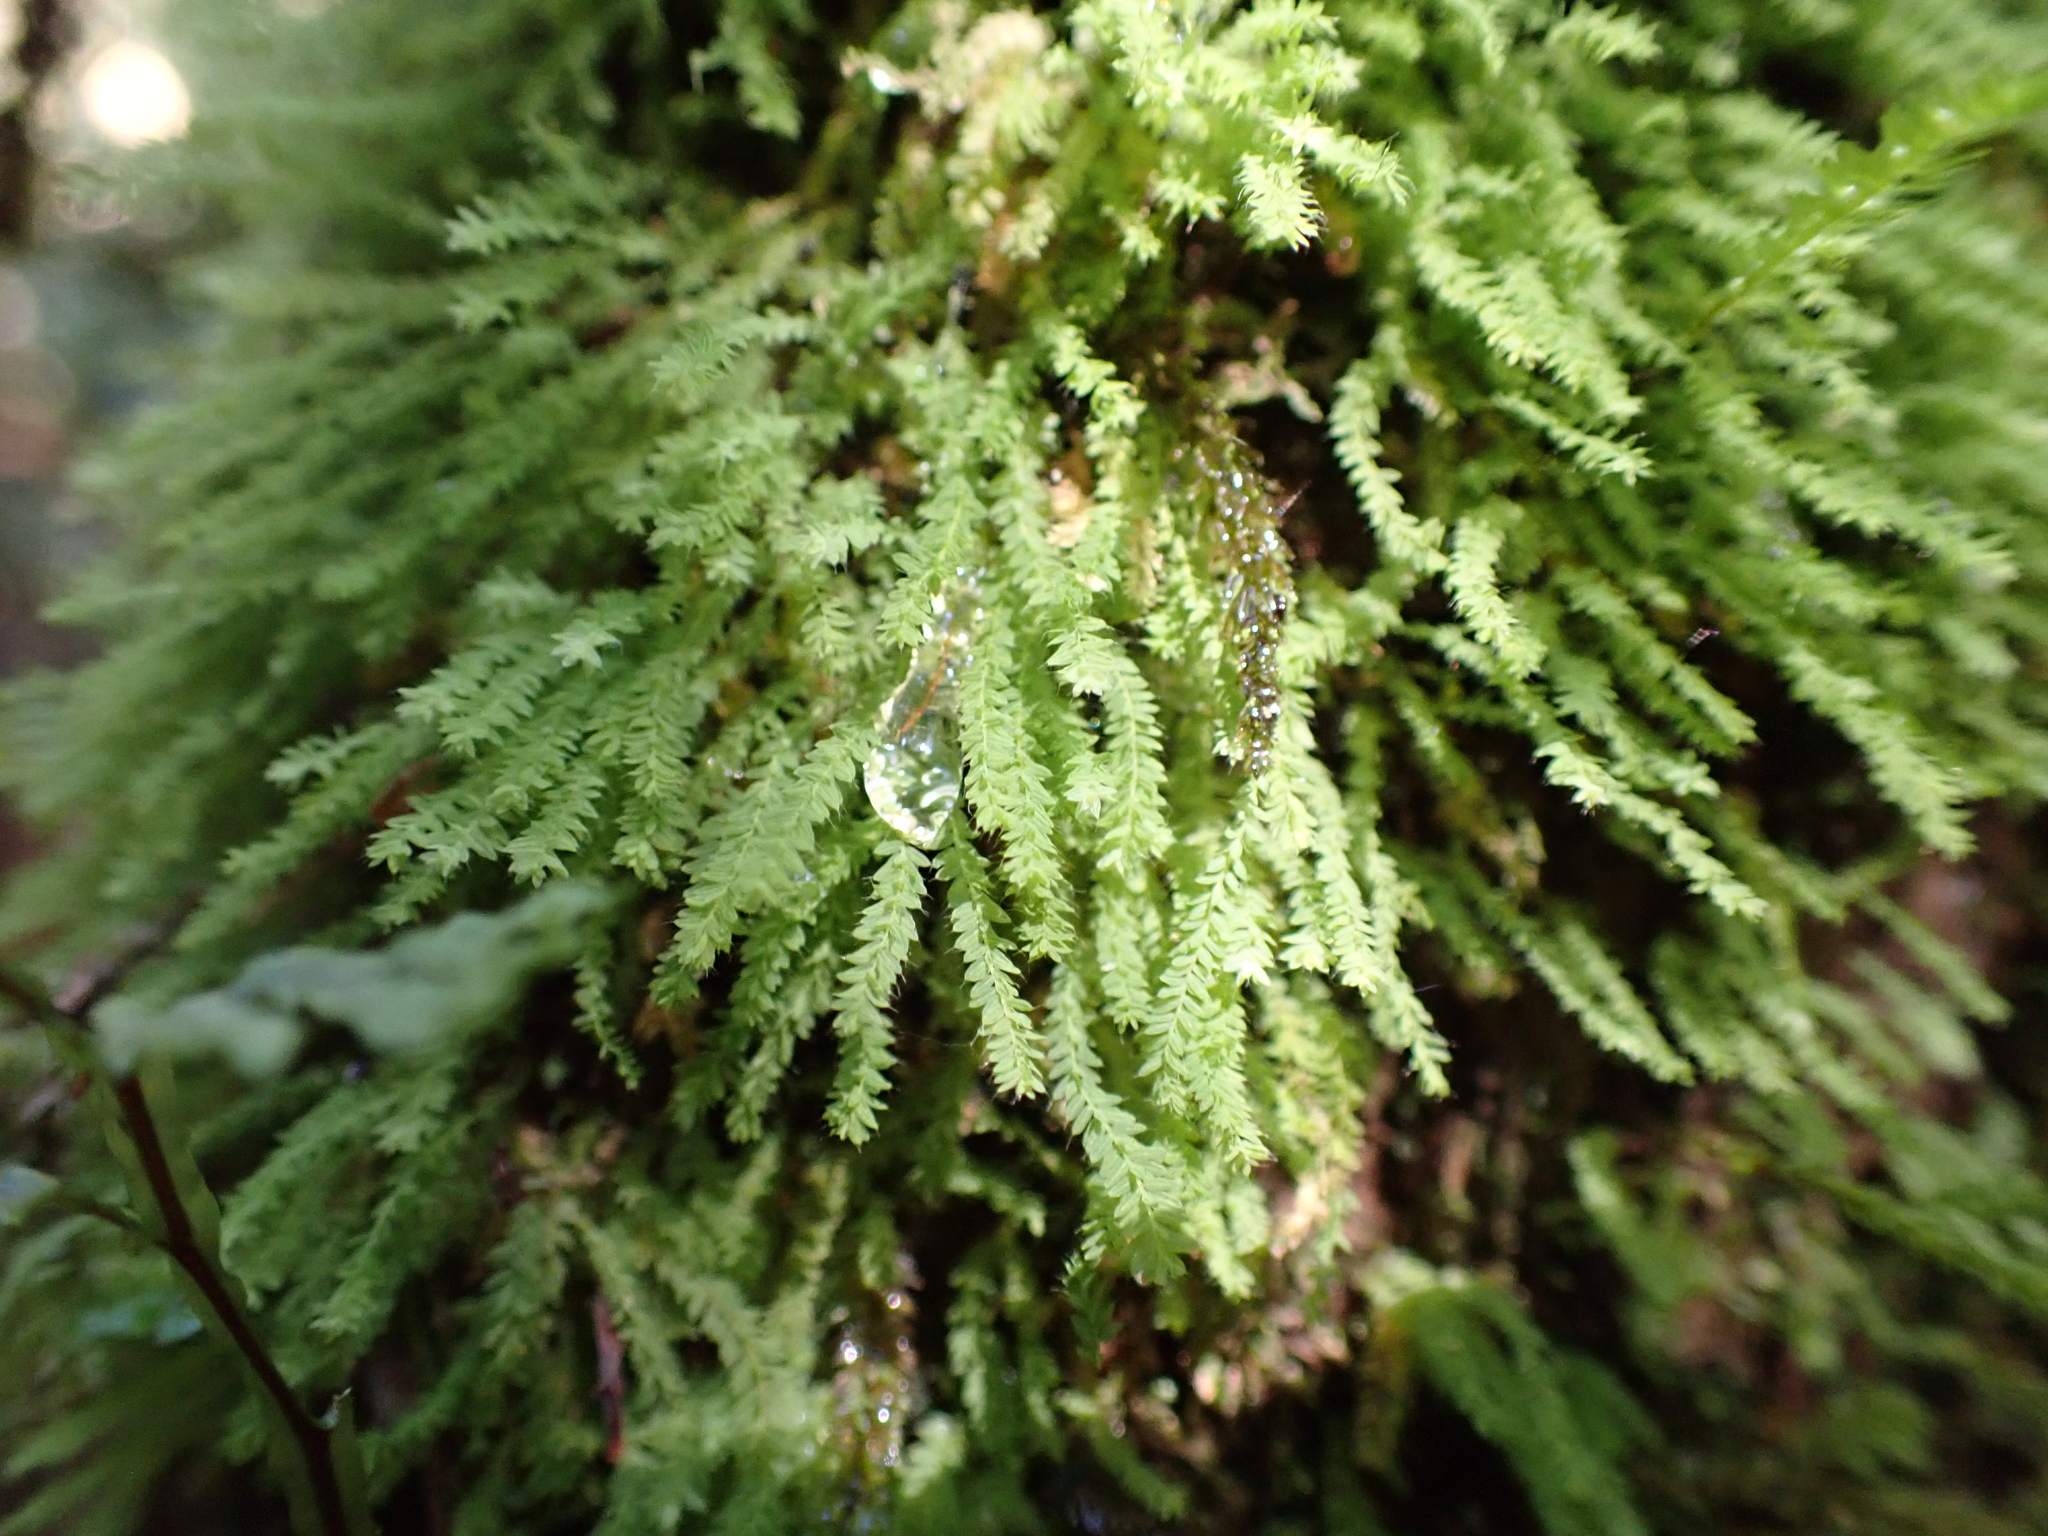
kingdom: Plantae
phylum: Bryophyta
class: Bryopsida
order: Orthodontiales
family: Orthodontiaceae
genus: Hymenodon
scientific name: Hymenodon pilifer
